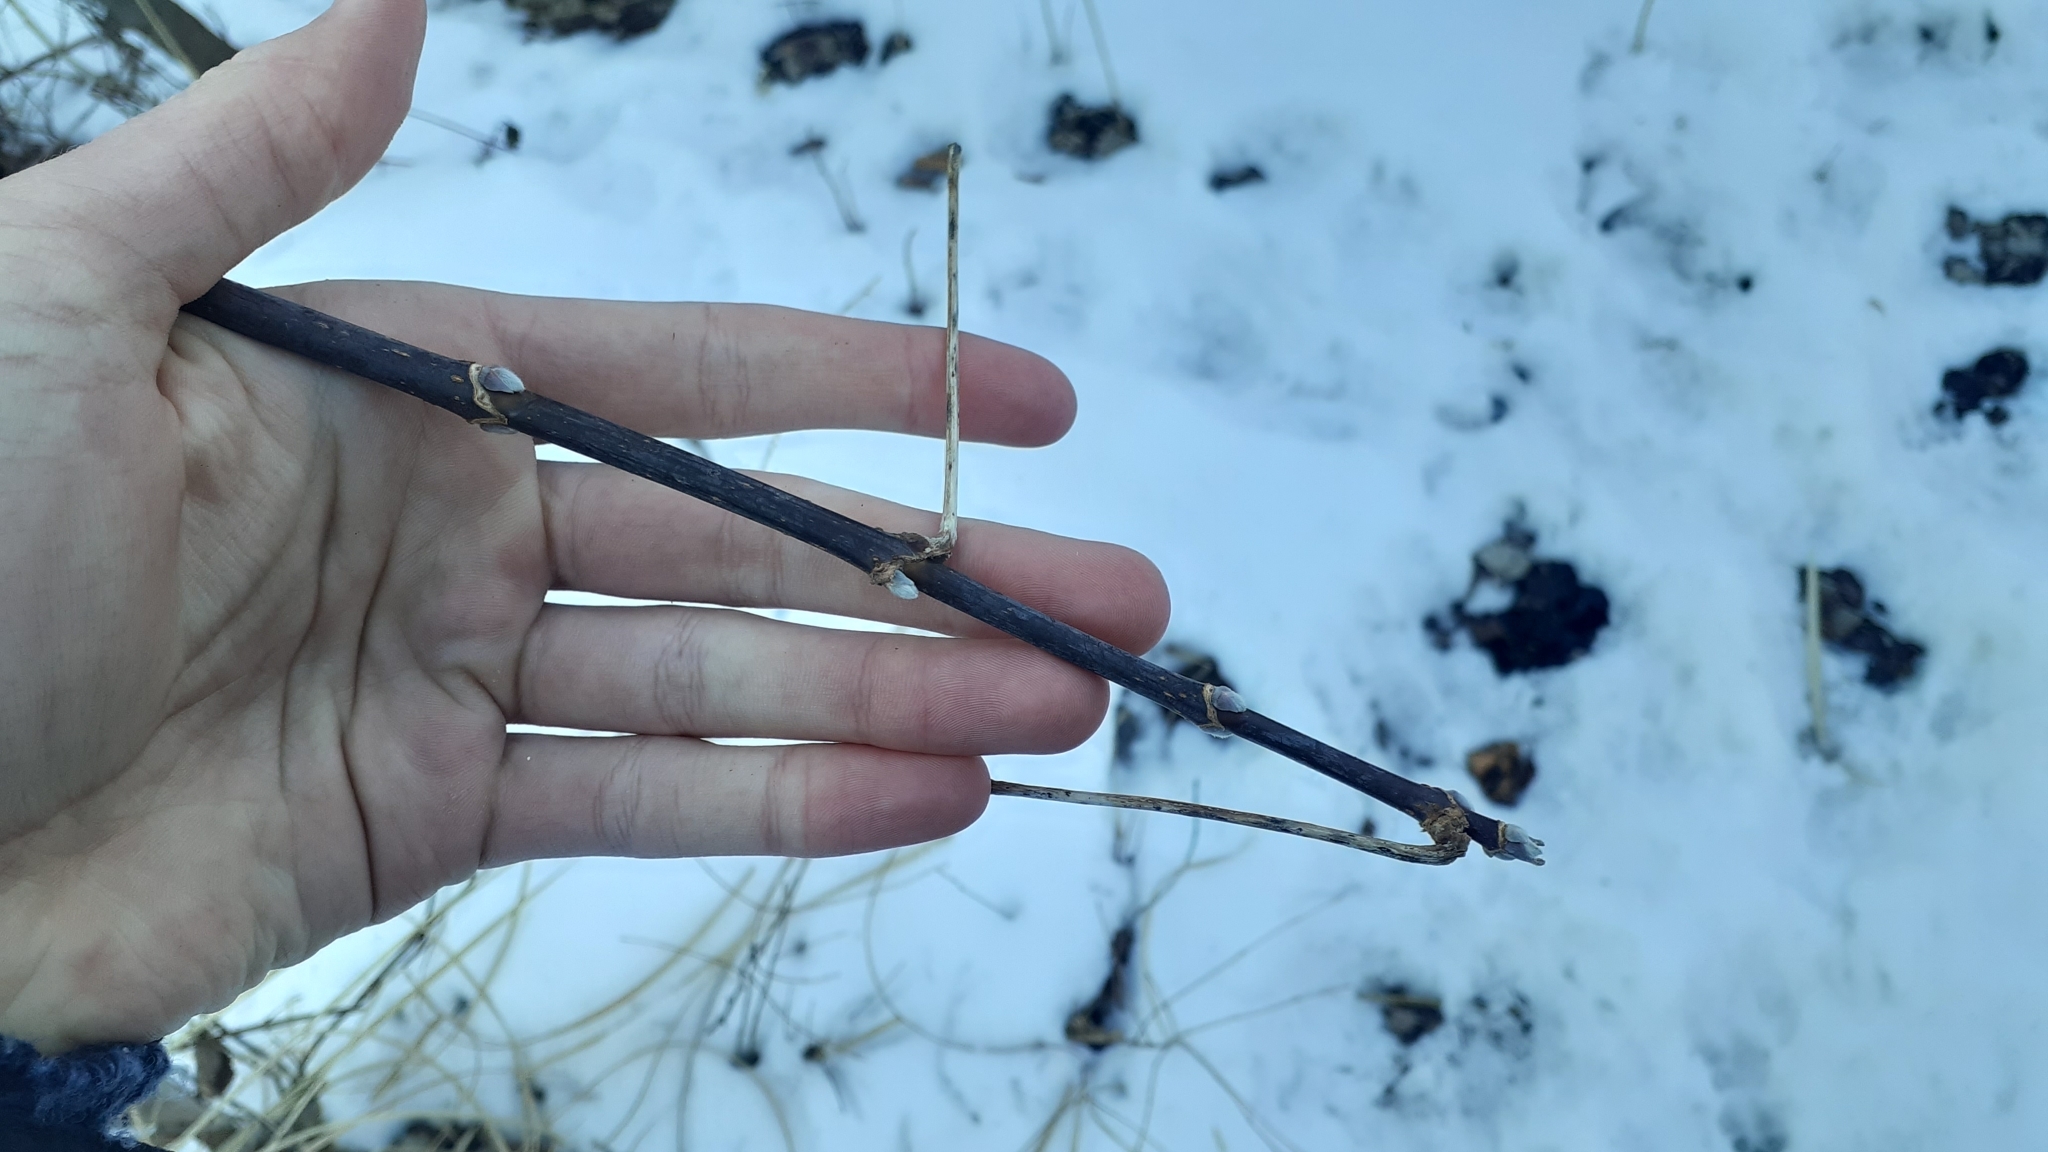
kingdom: Plantae
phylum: Tracheophyta
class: Magnoliopsida
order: Sapindales
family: Sapindaceae
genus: Acer
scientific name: Acer negundo
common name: Ashleaf maple
